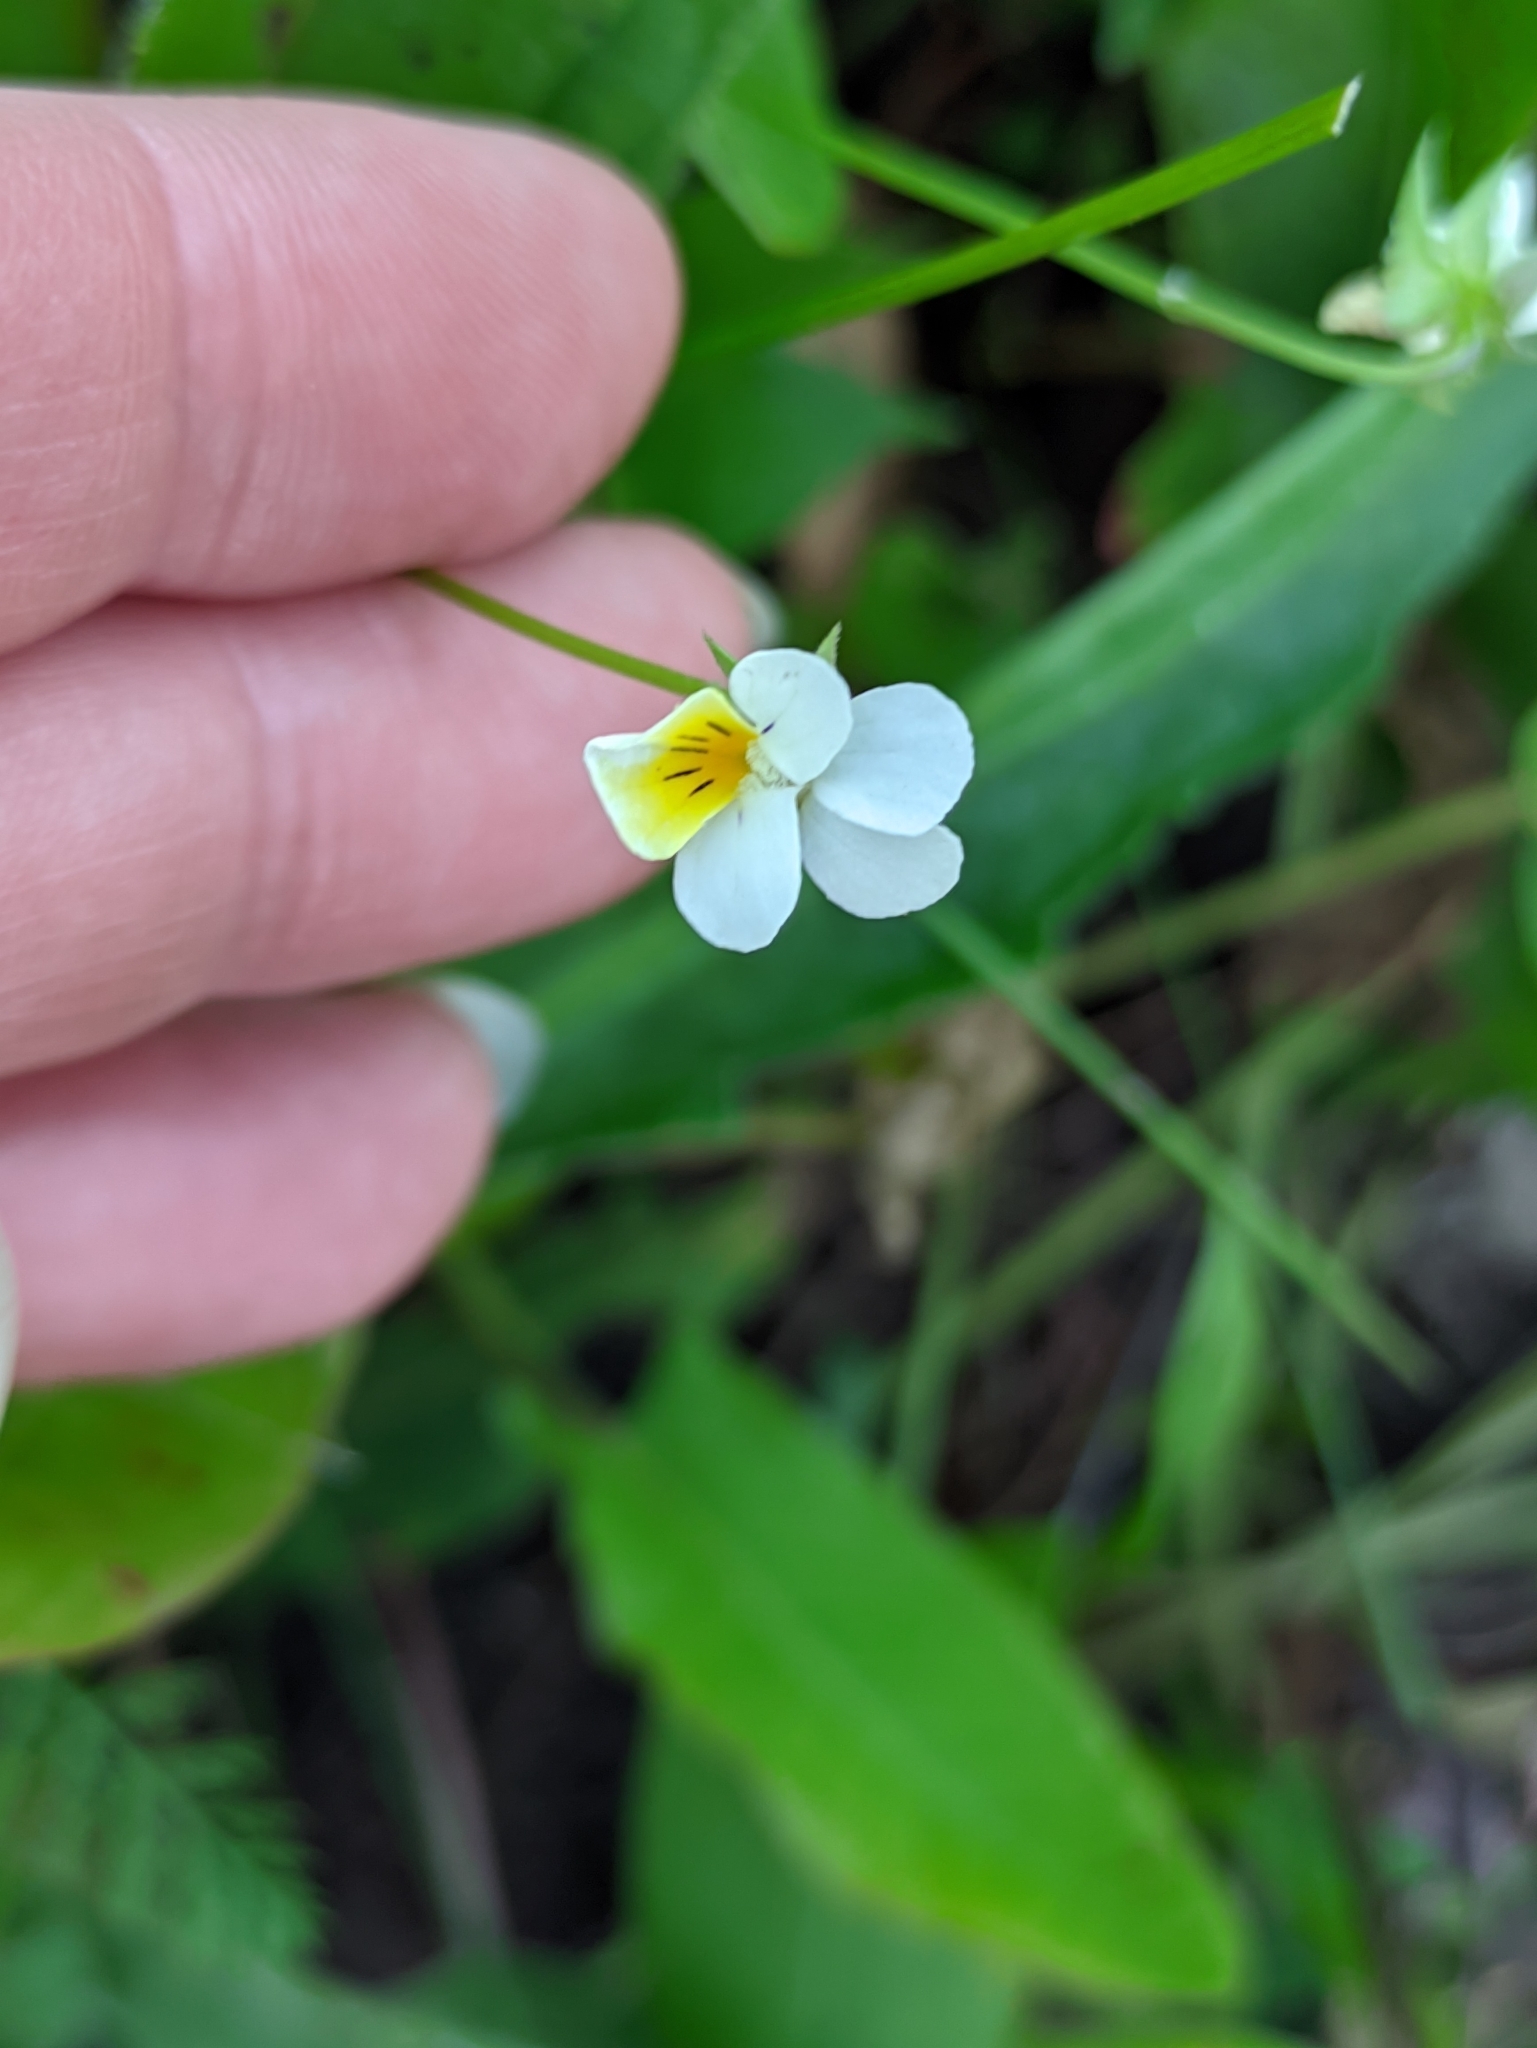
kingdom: Plantae
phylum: Tracheophyta
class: Magnoliopsida
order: Malpighiales
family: Violaceae
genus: Viola
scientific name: Viola arvensis
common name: Field pansy
